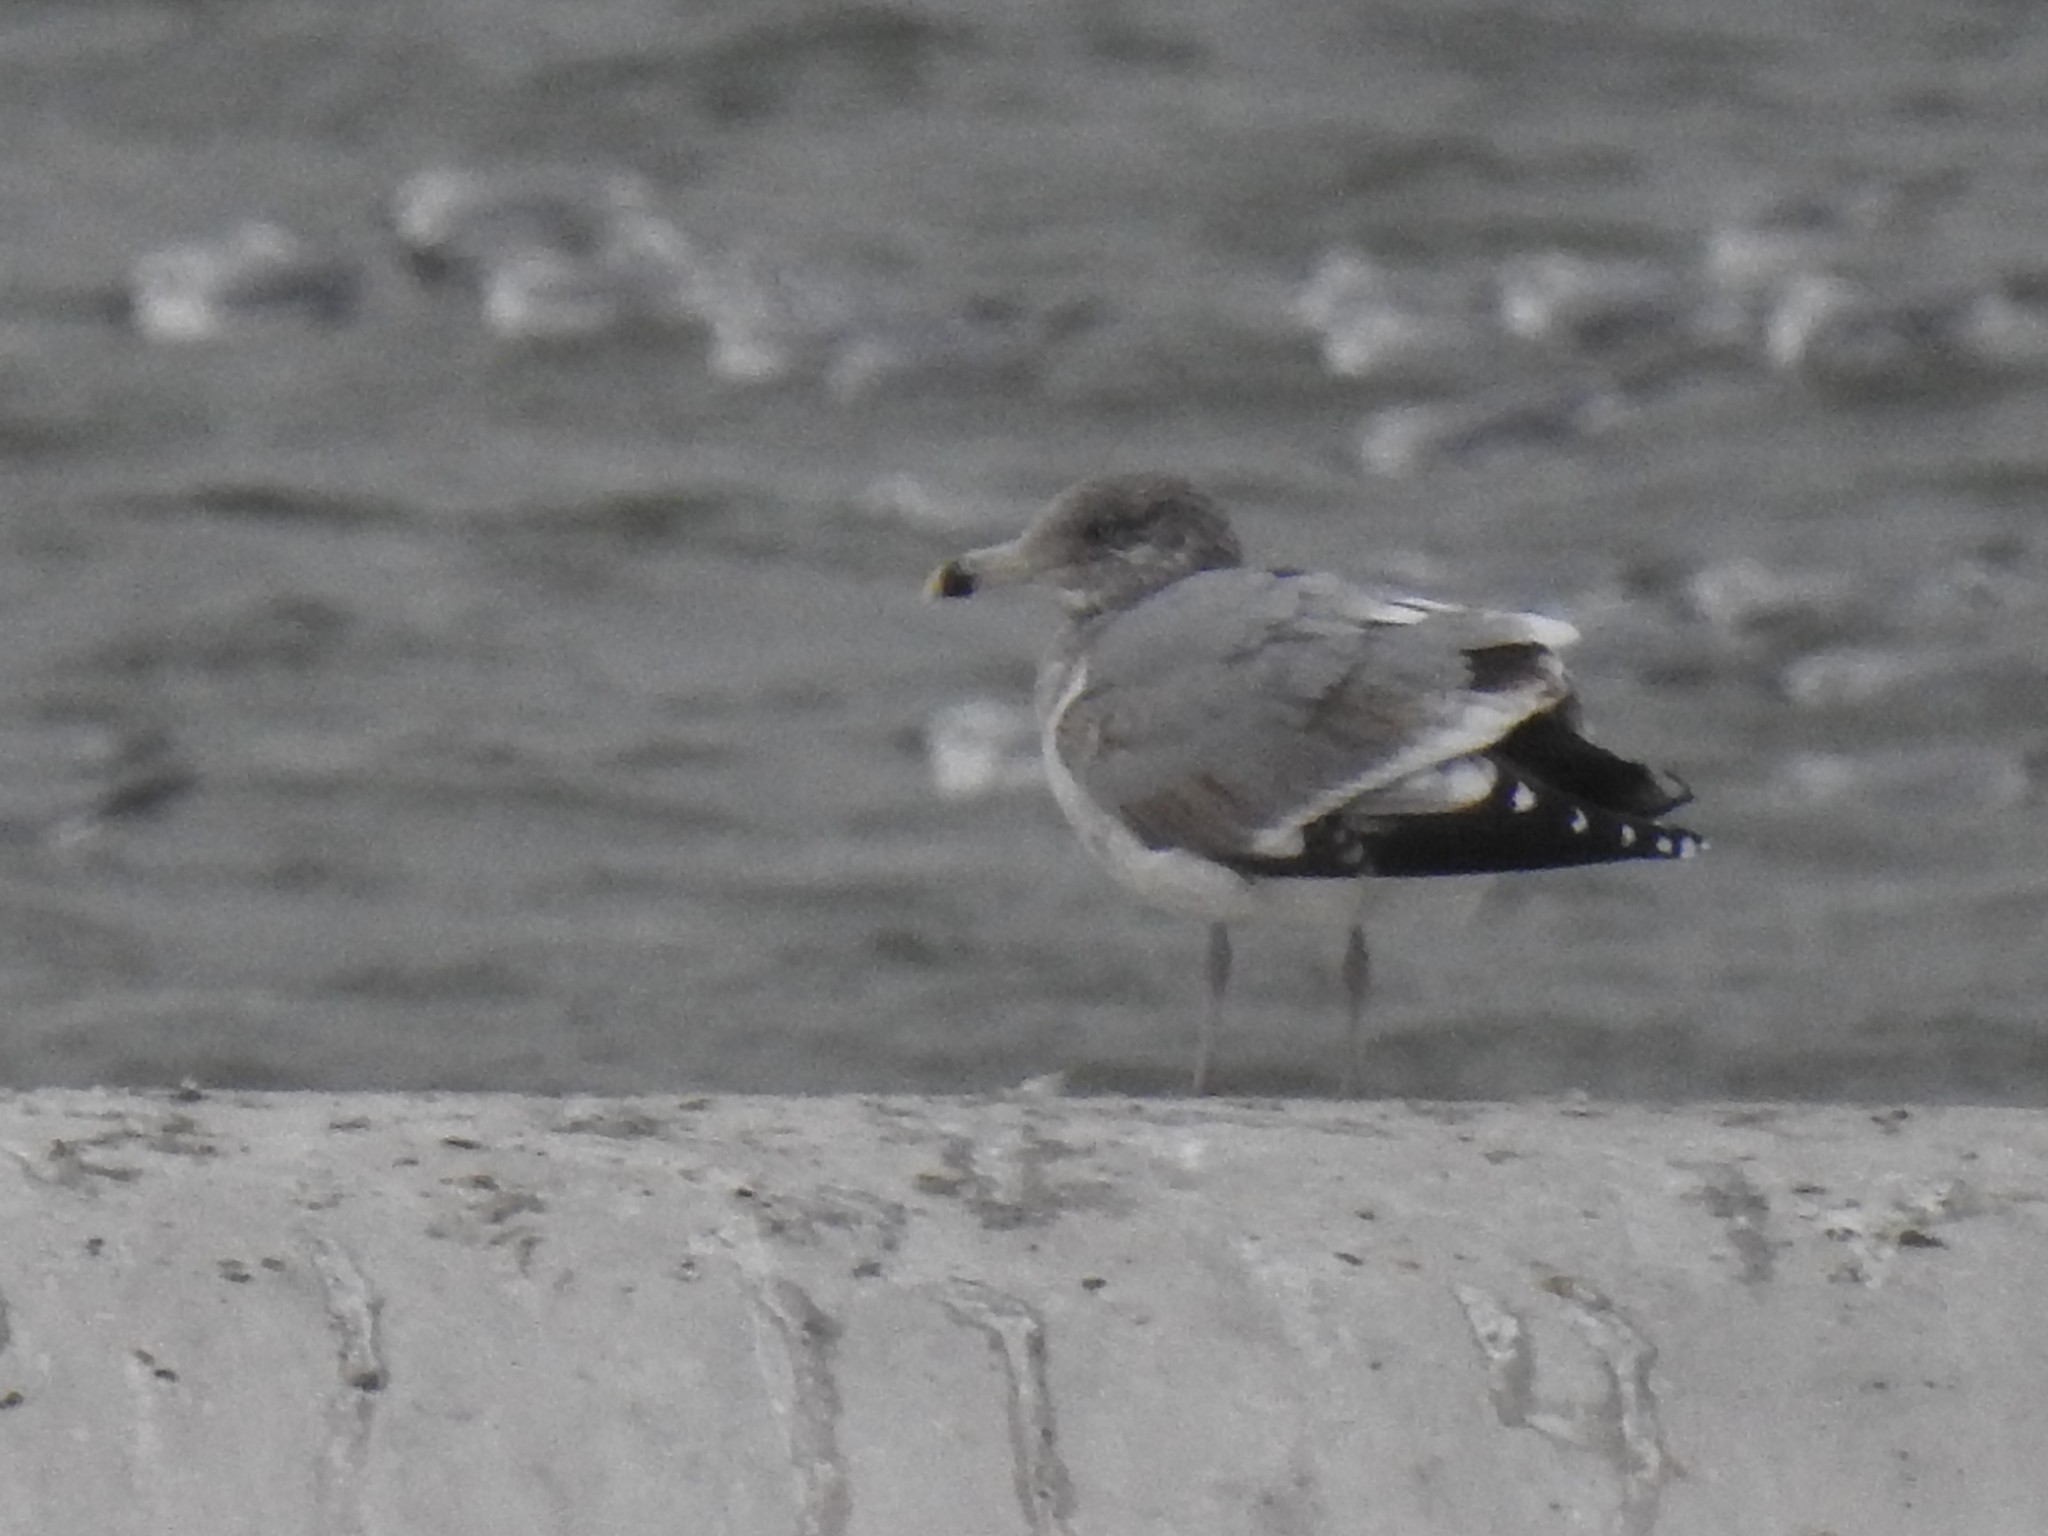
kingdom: Animalia
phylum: Chordata
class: Aves
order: Charadriiformes
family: Laridae
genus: Larus
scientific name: Larus argentatus
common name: Herring gull
